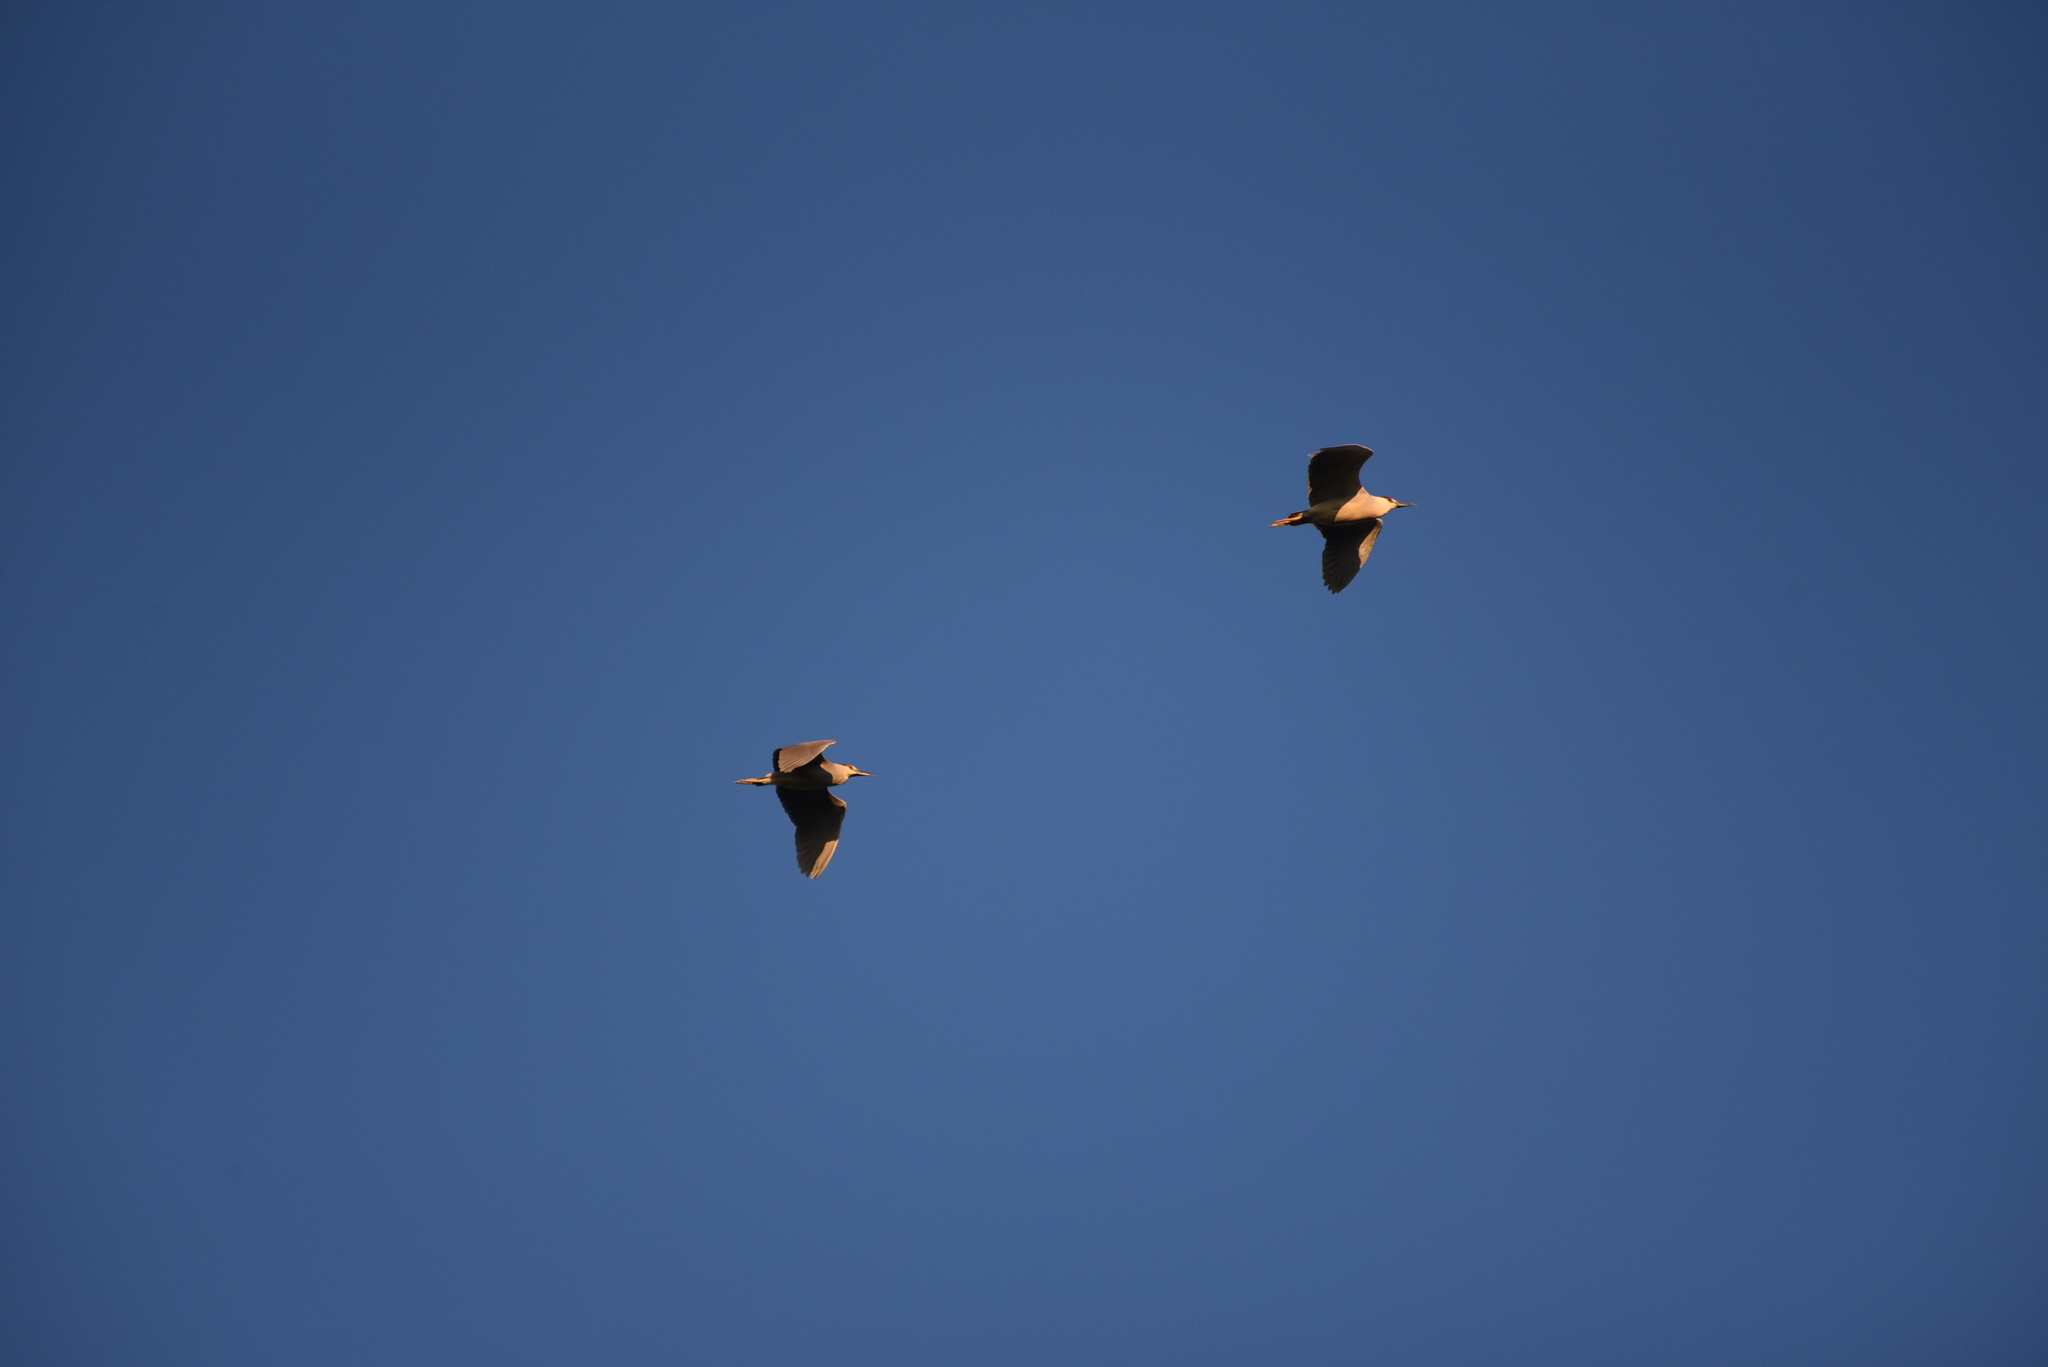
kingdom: Animalia
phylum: Chordata
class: Aves
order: Pelecaniformes
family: Ardeidae
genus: Nycticorax
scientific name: Nycticorax nycticorax
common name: Black-crowned night heron
